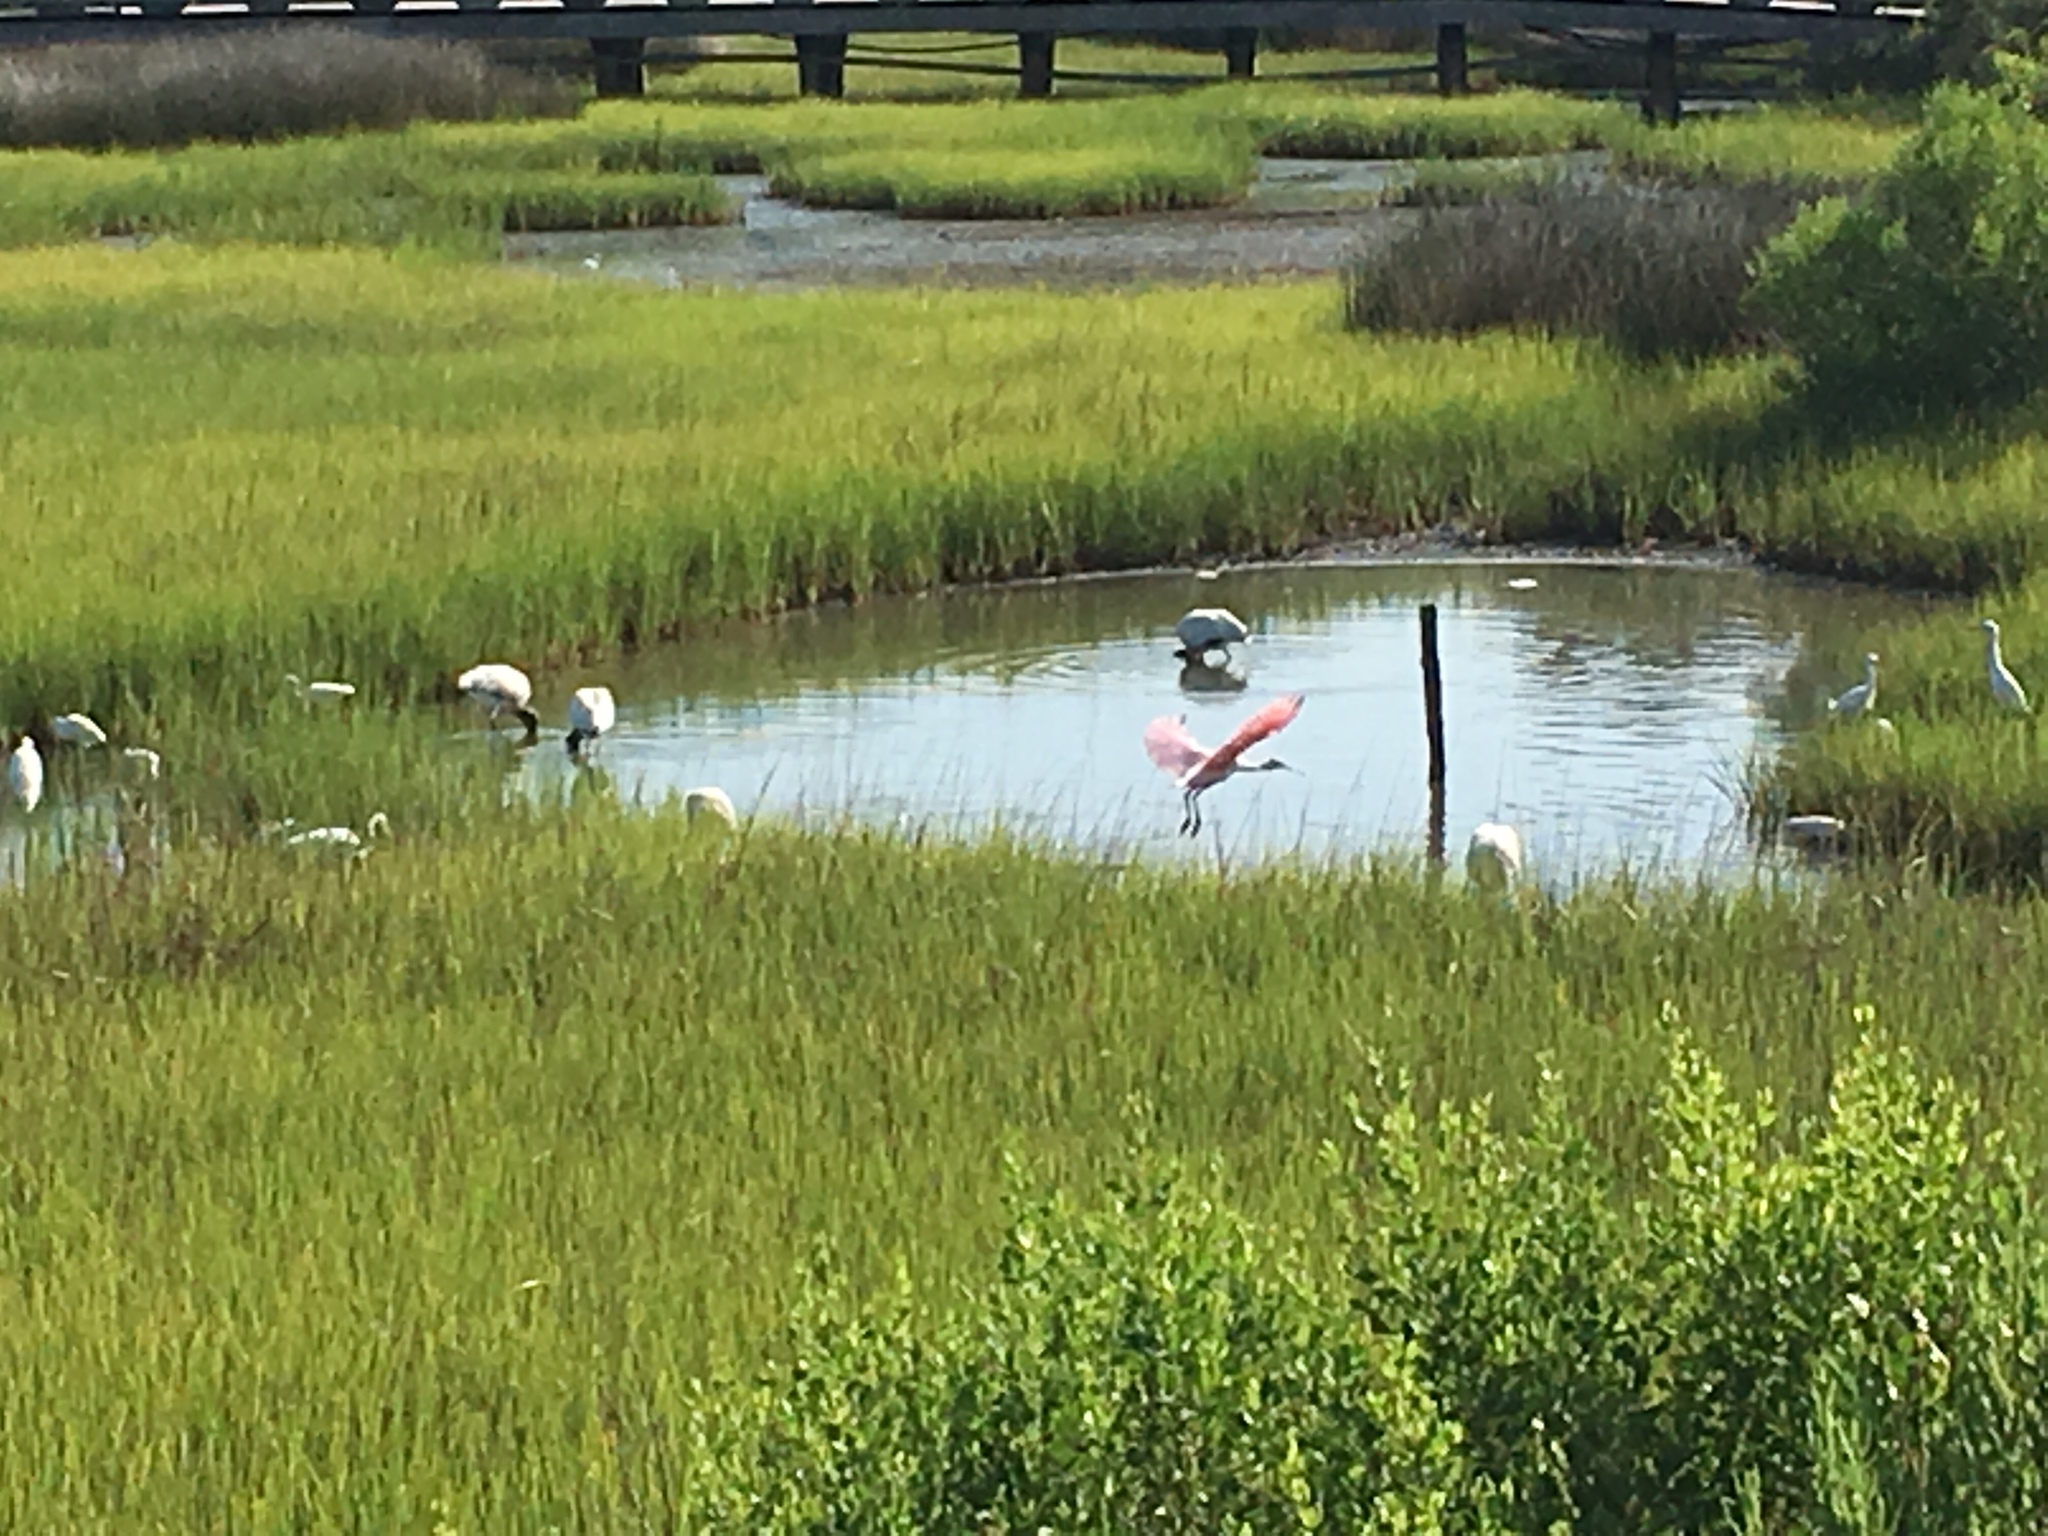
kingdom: Animalia
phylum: Chordata
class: Aves
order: Pelecaniformes
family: Threskiornithidae
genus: Platalea
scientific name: Platalea ajaja
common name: Roseate spoonbill
